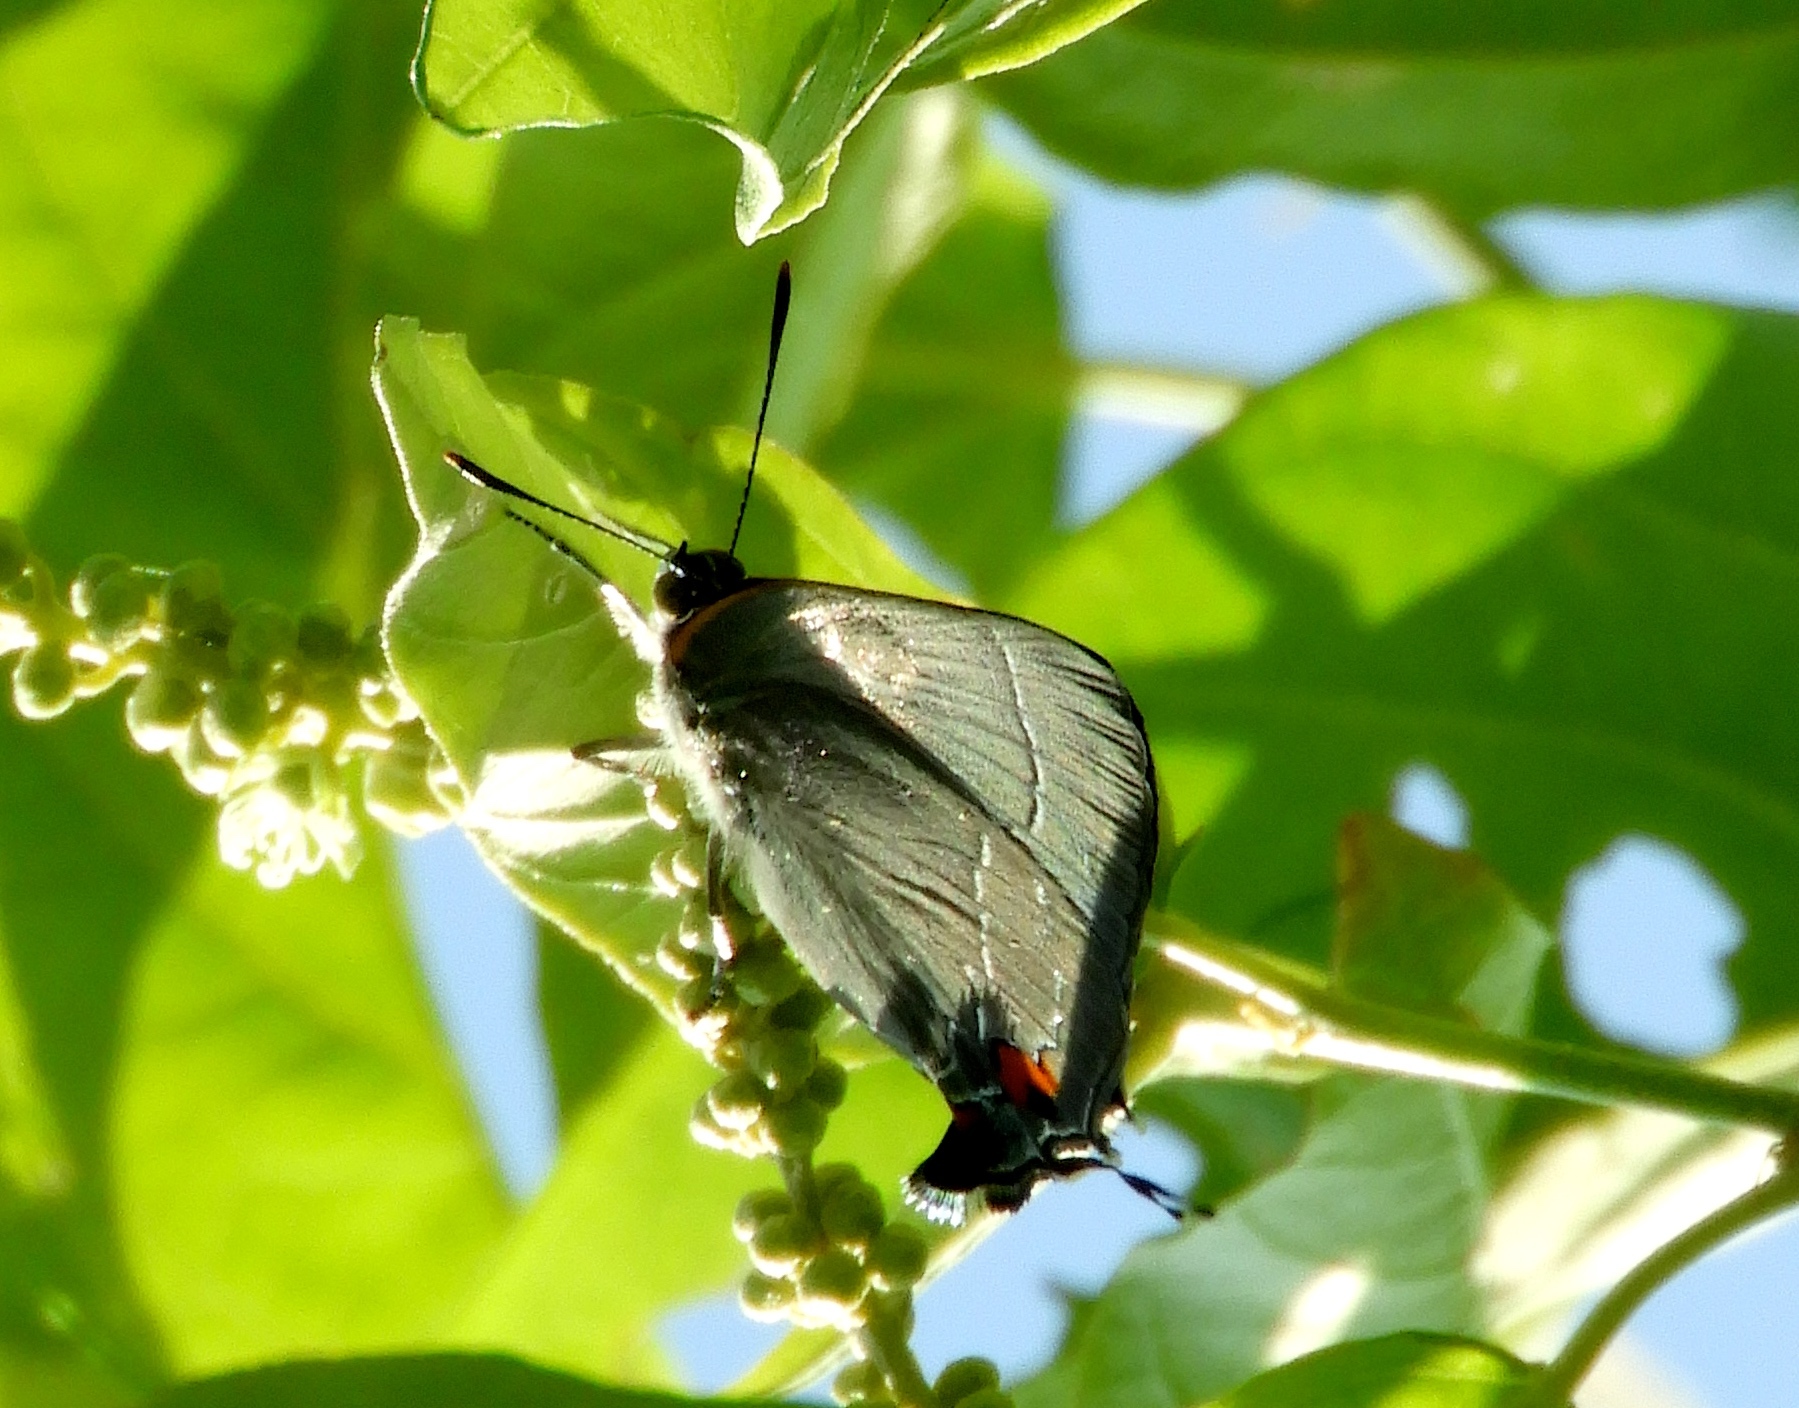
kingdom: Animalia
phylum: Arthropoda
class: Insecta
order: Lepidoptera
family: Lycaenidae
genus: Rekoa
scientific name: Rekoa
